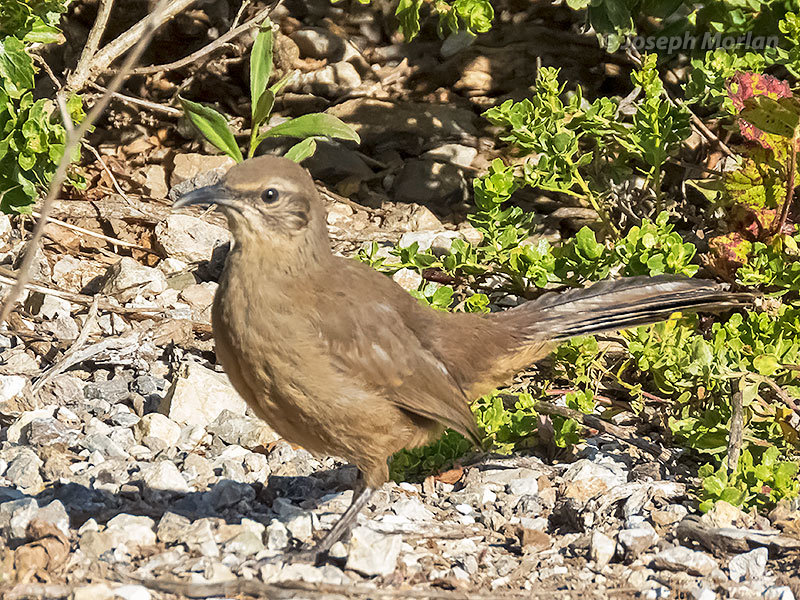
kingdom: Animalia
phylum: Chordata
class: Aves
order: Passeriformes
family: Mimidae
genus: Toxostoma
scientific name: Toxostoma redivivum
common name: California thrasher
